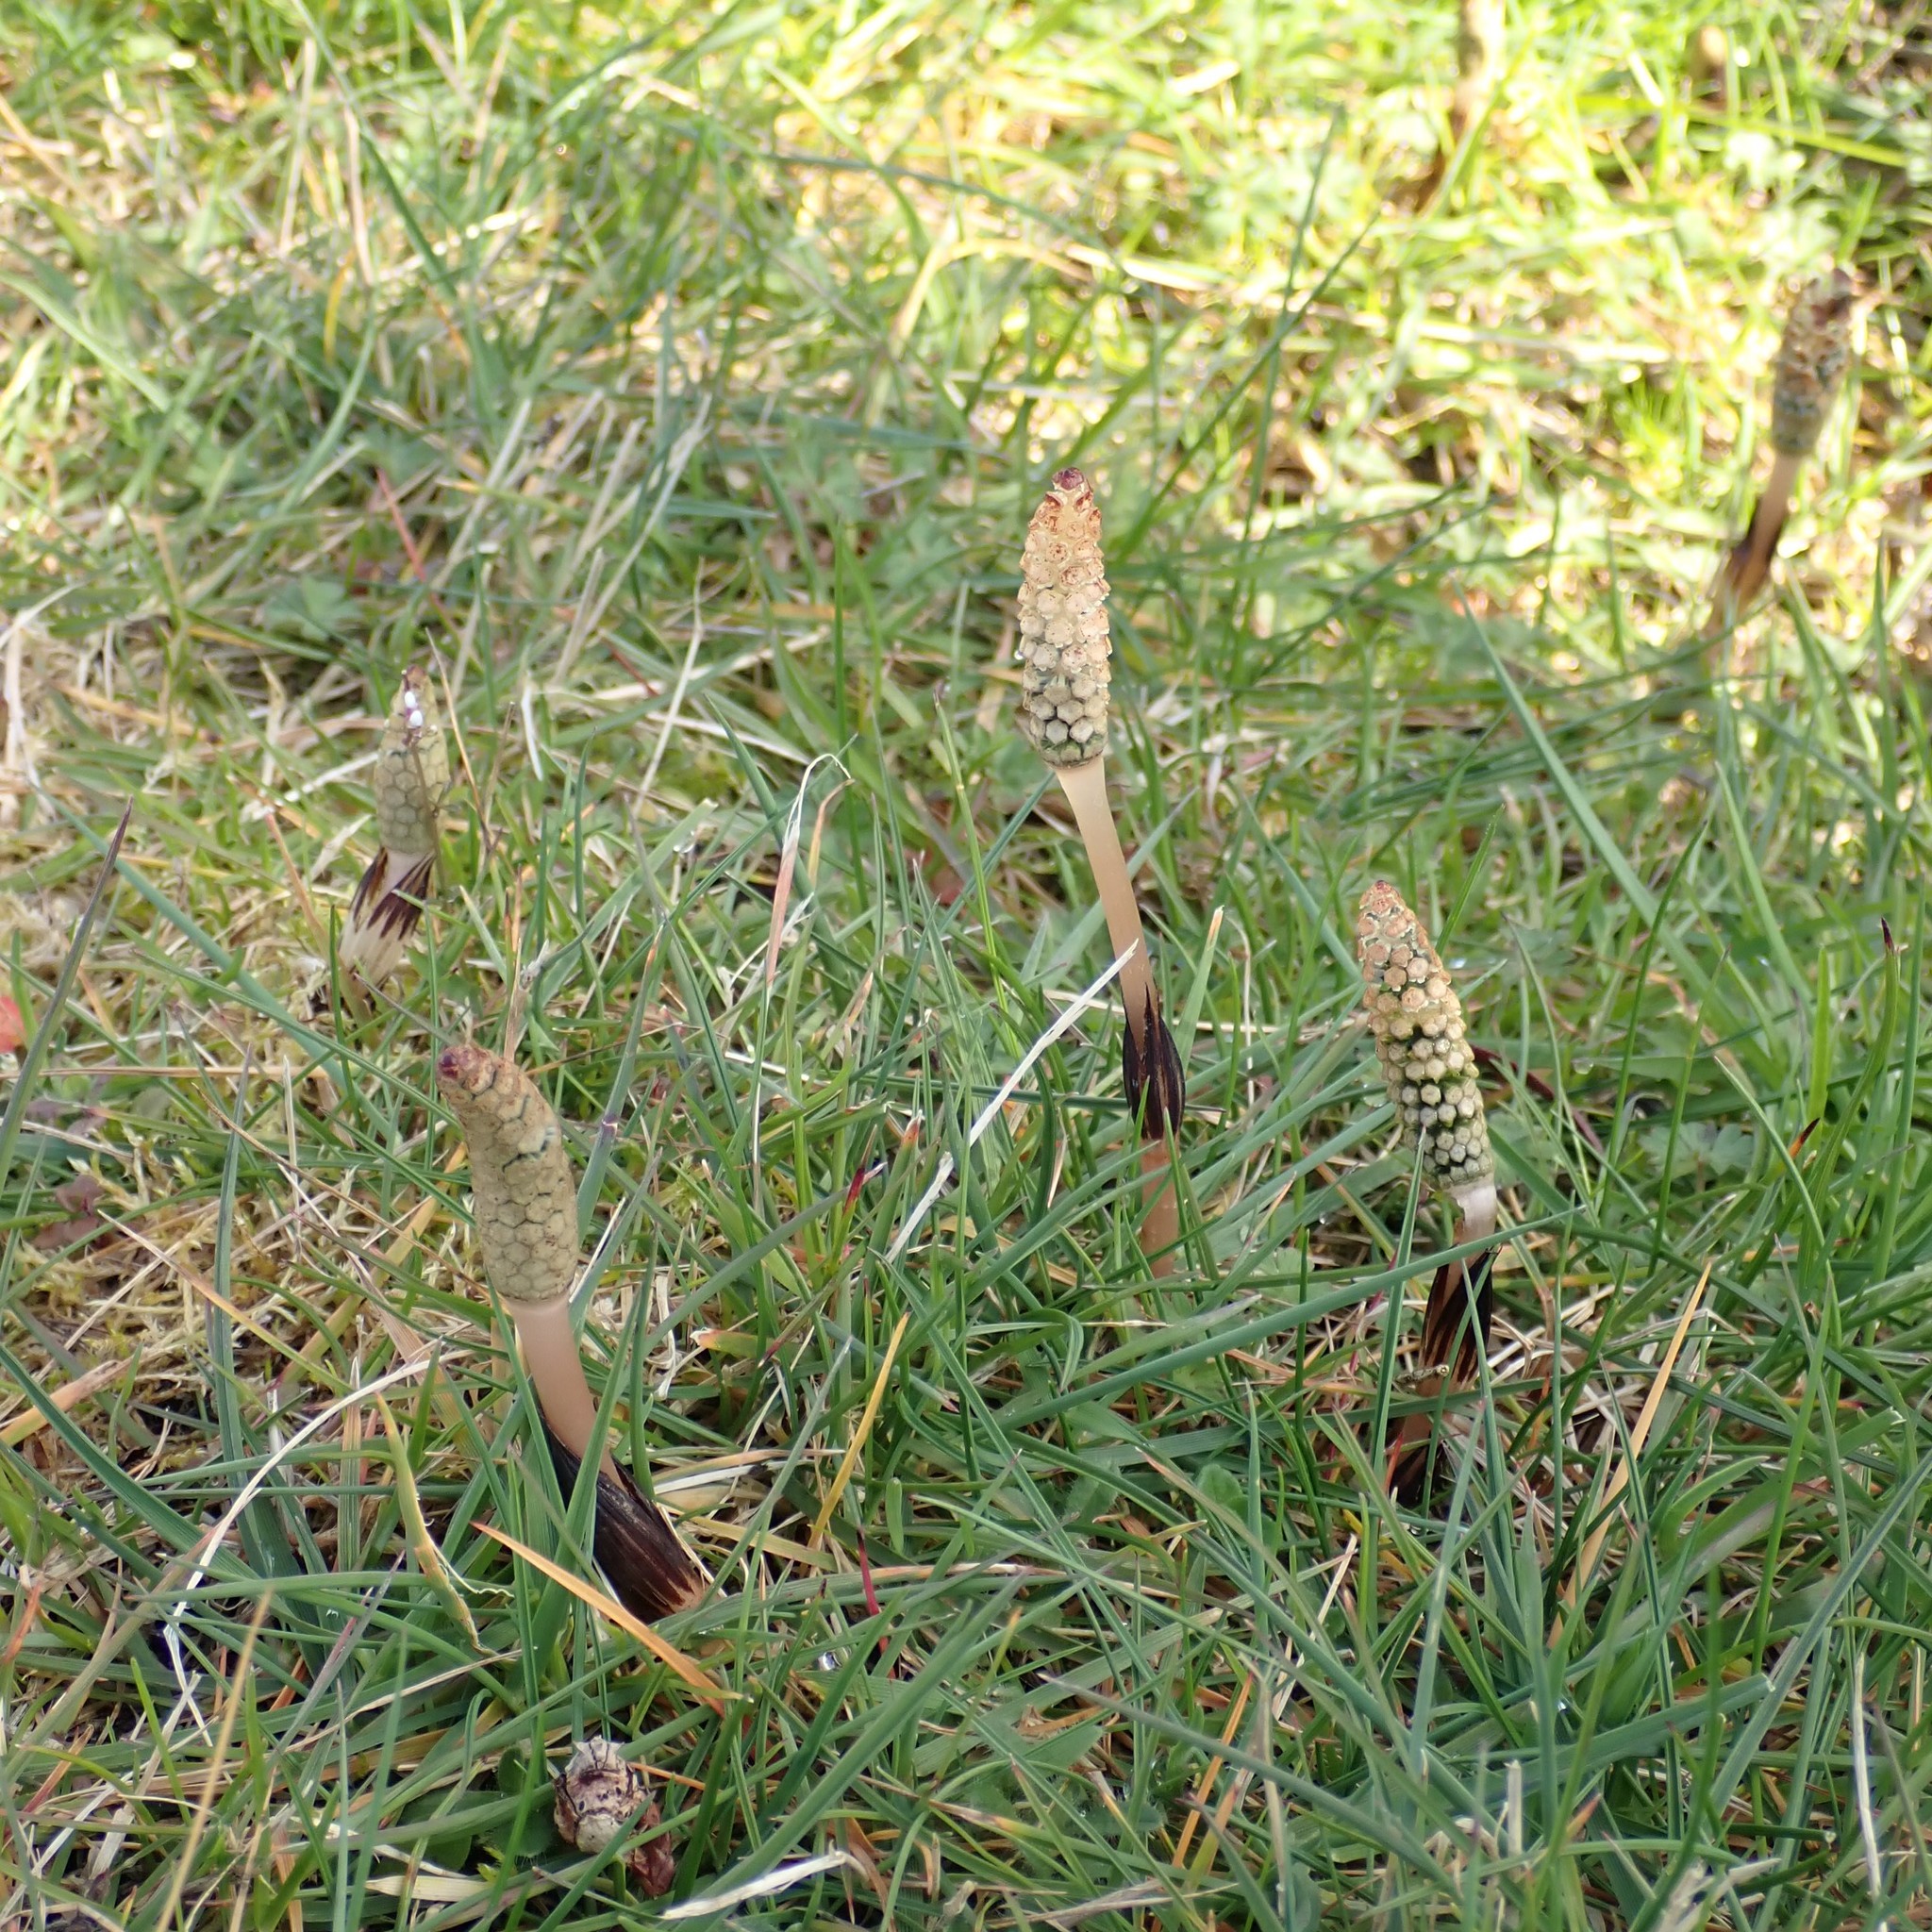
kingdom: Plantae
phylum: Tracheophyta
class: Polypodiopsida
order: Equisetales
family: Equisetaceae
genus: Equisetum
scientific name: Equisetum arvense
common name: Field horsetail
